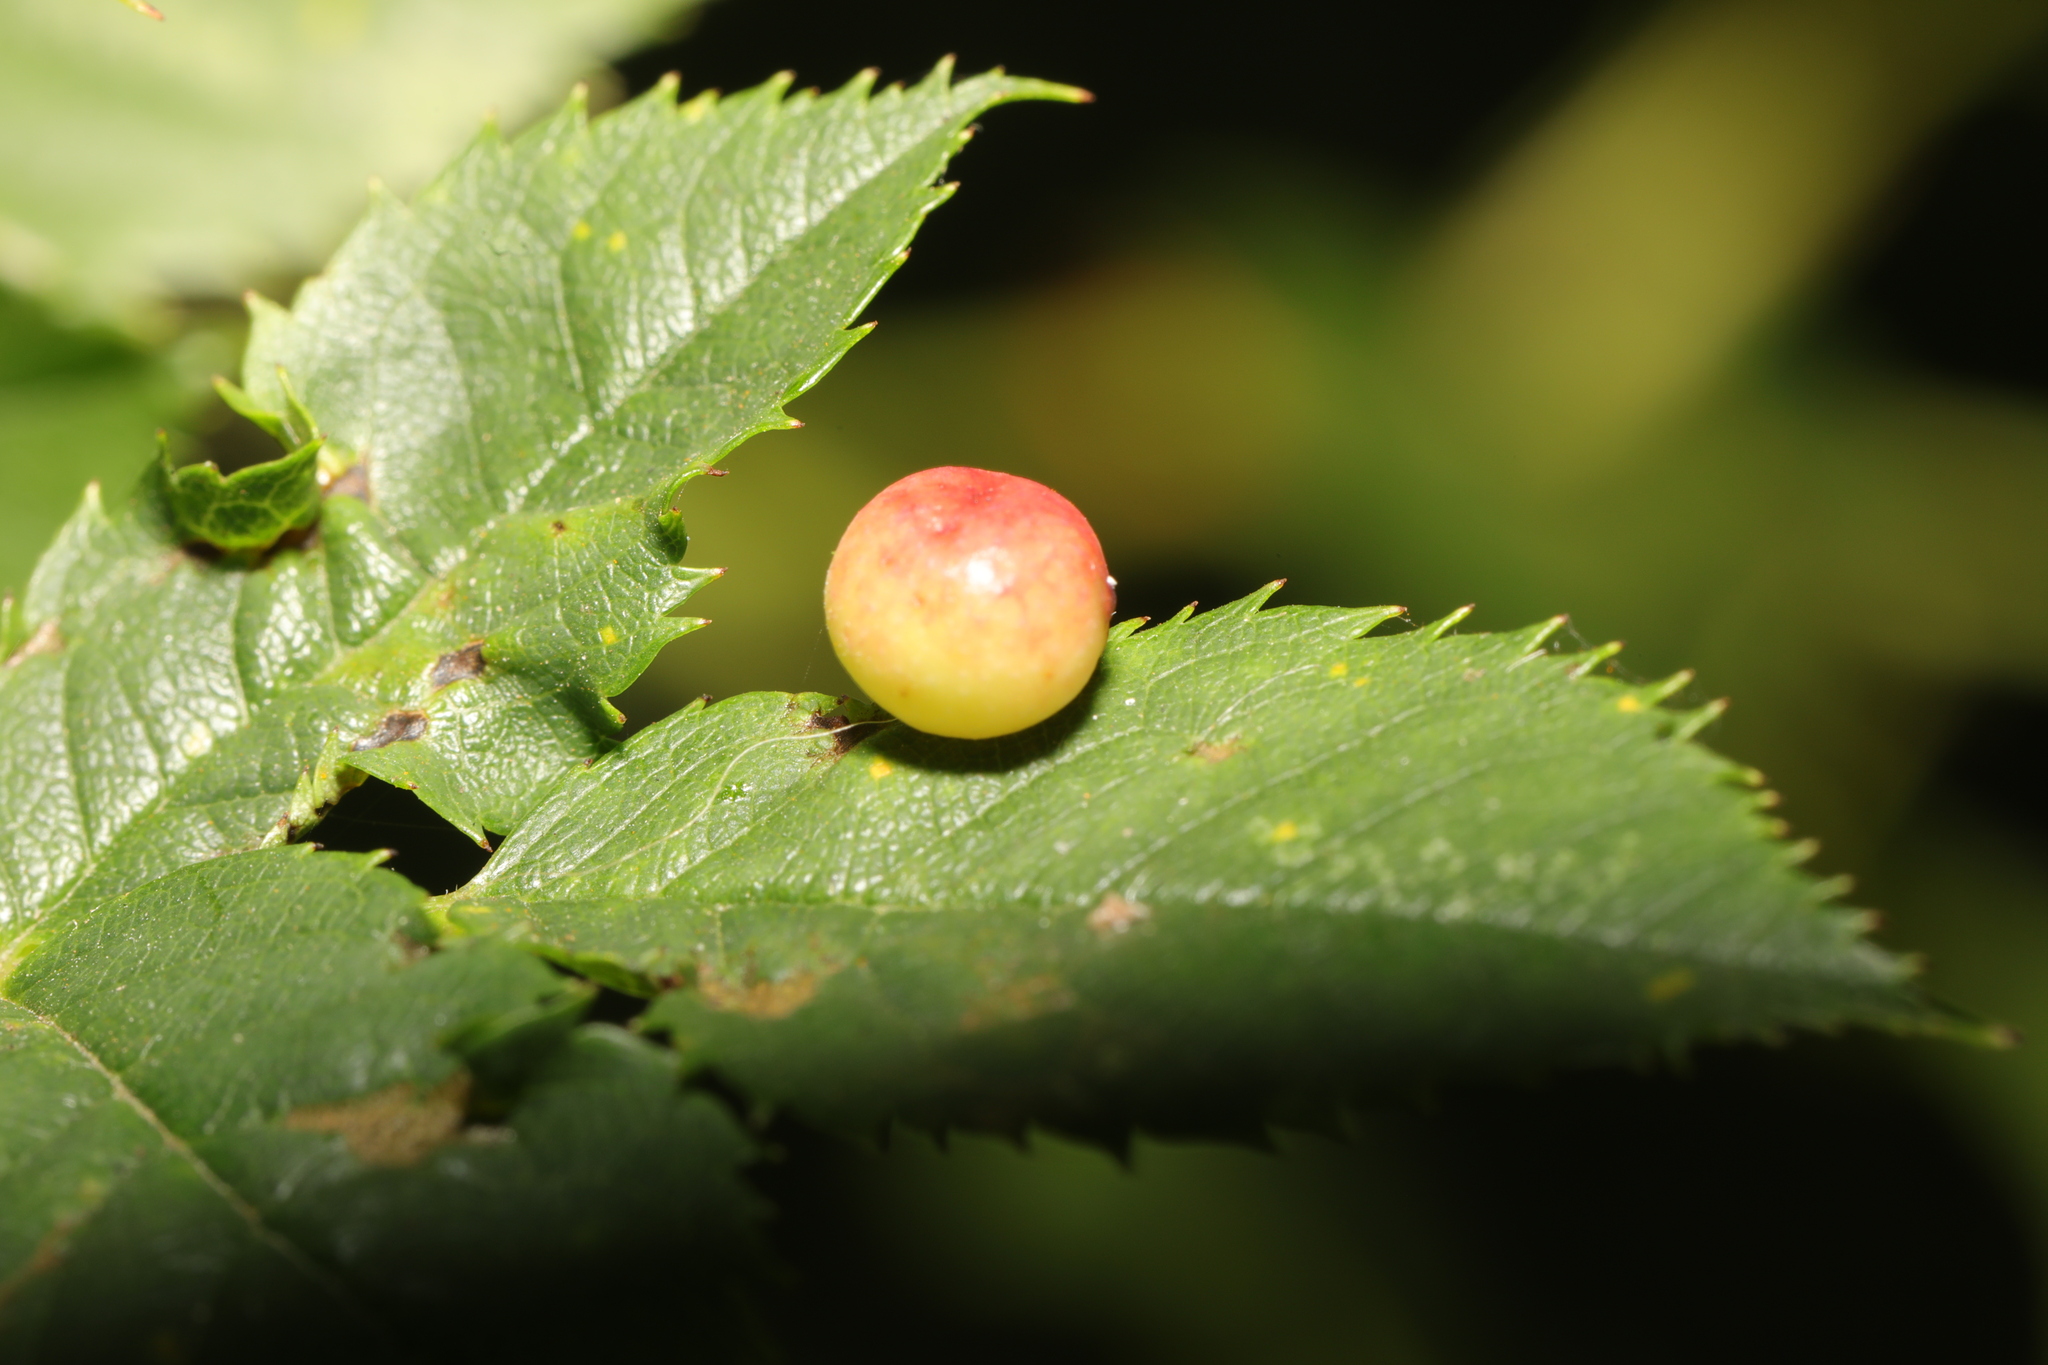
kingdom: Animalia
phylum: Arthropoda
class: Insecta
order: Hymenoptera
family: Cynipidae
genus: Diplolepis
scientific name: Diplolepis
